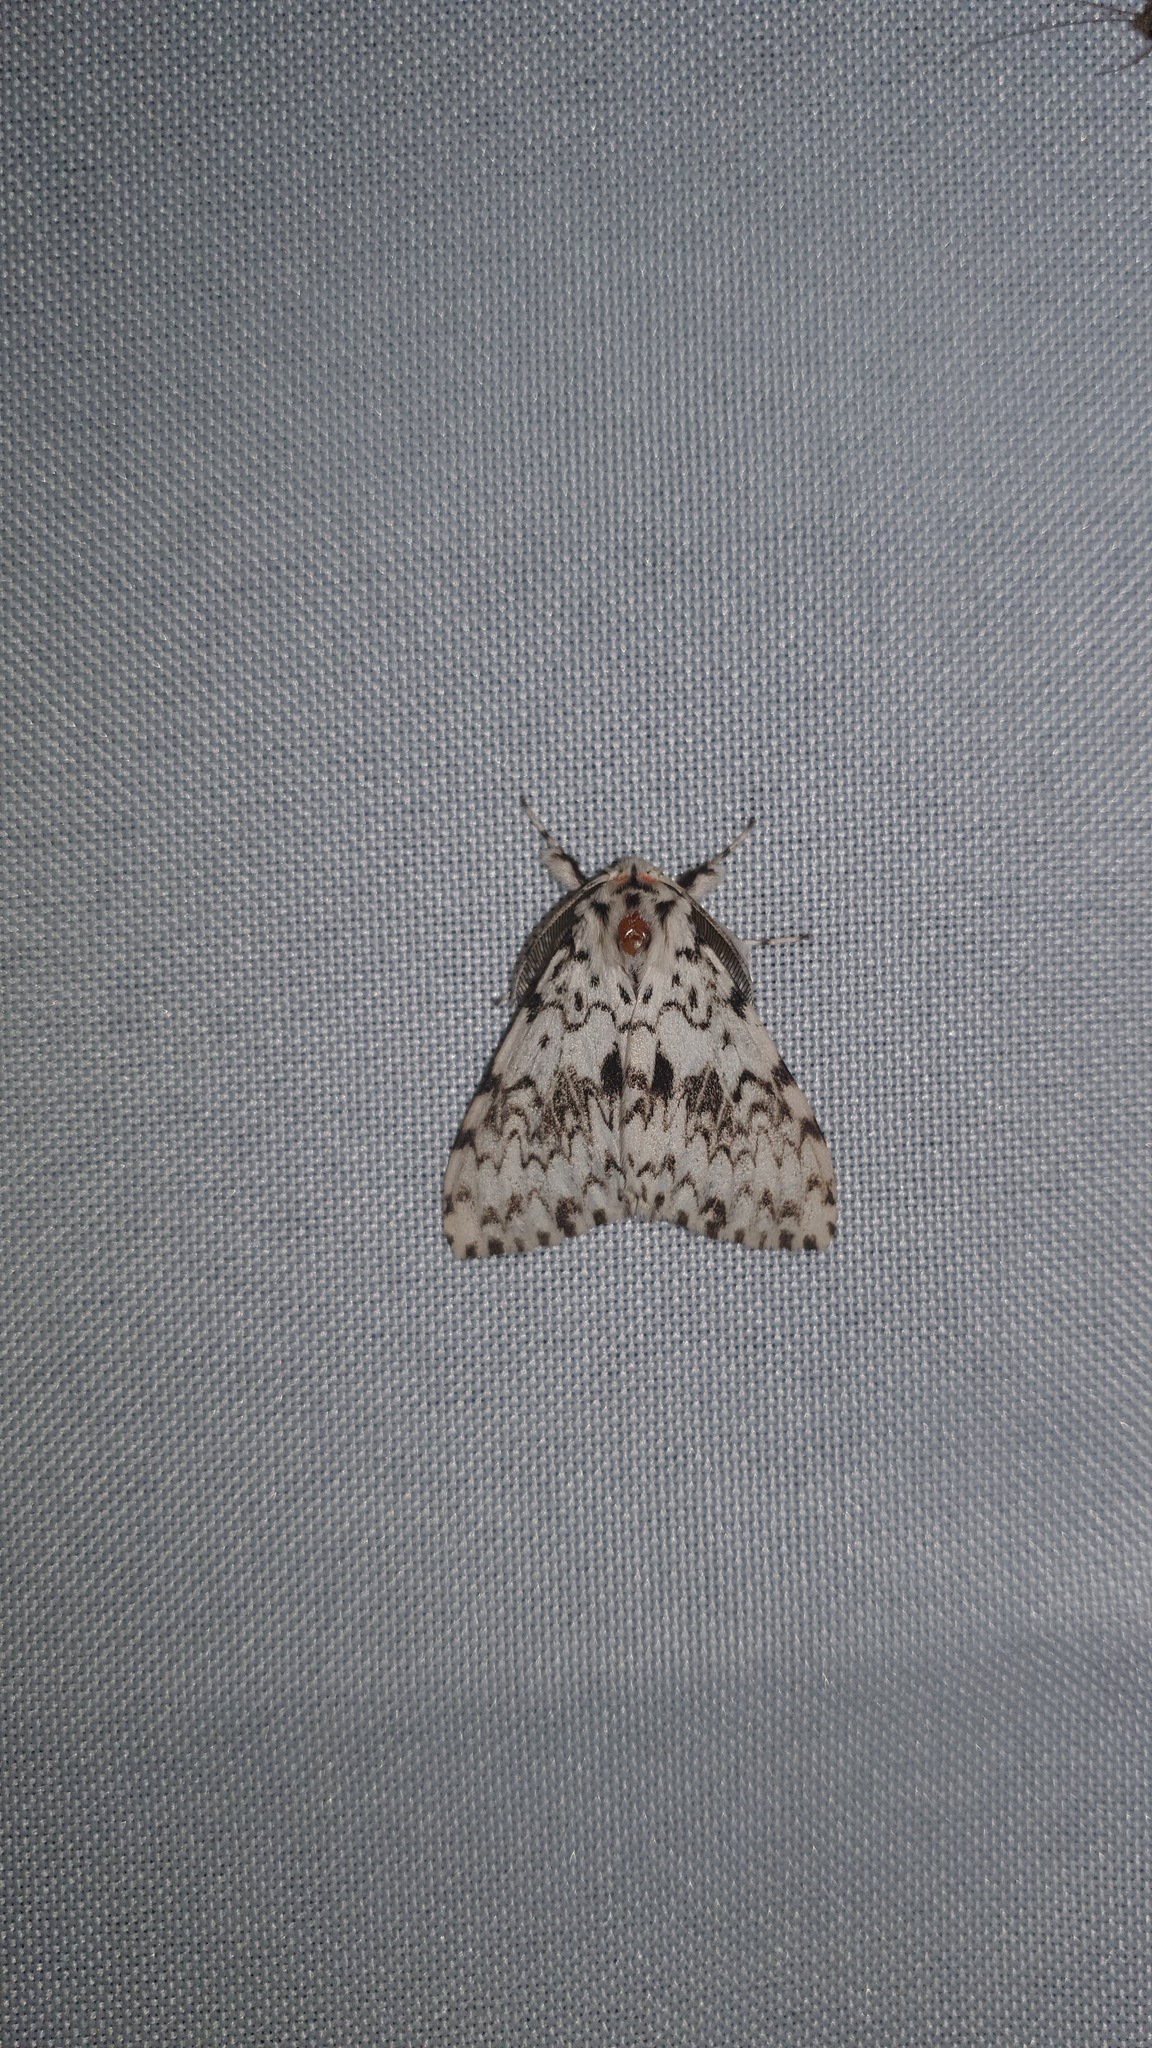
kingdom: Animalia
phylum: Arthropoda
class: Insecta
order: Lepidoptera
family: Erebidae
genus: Lymantria
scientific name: Lymantria monacha
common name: Black arches
